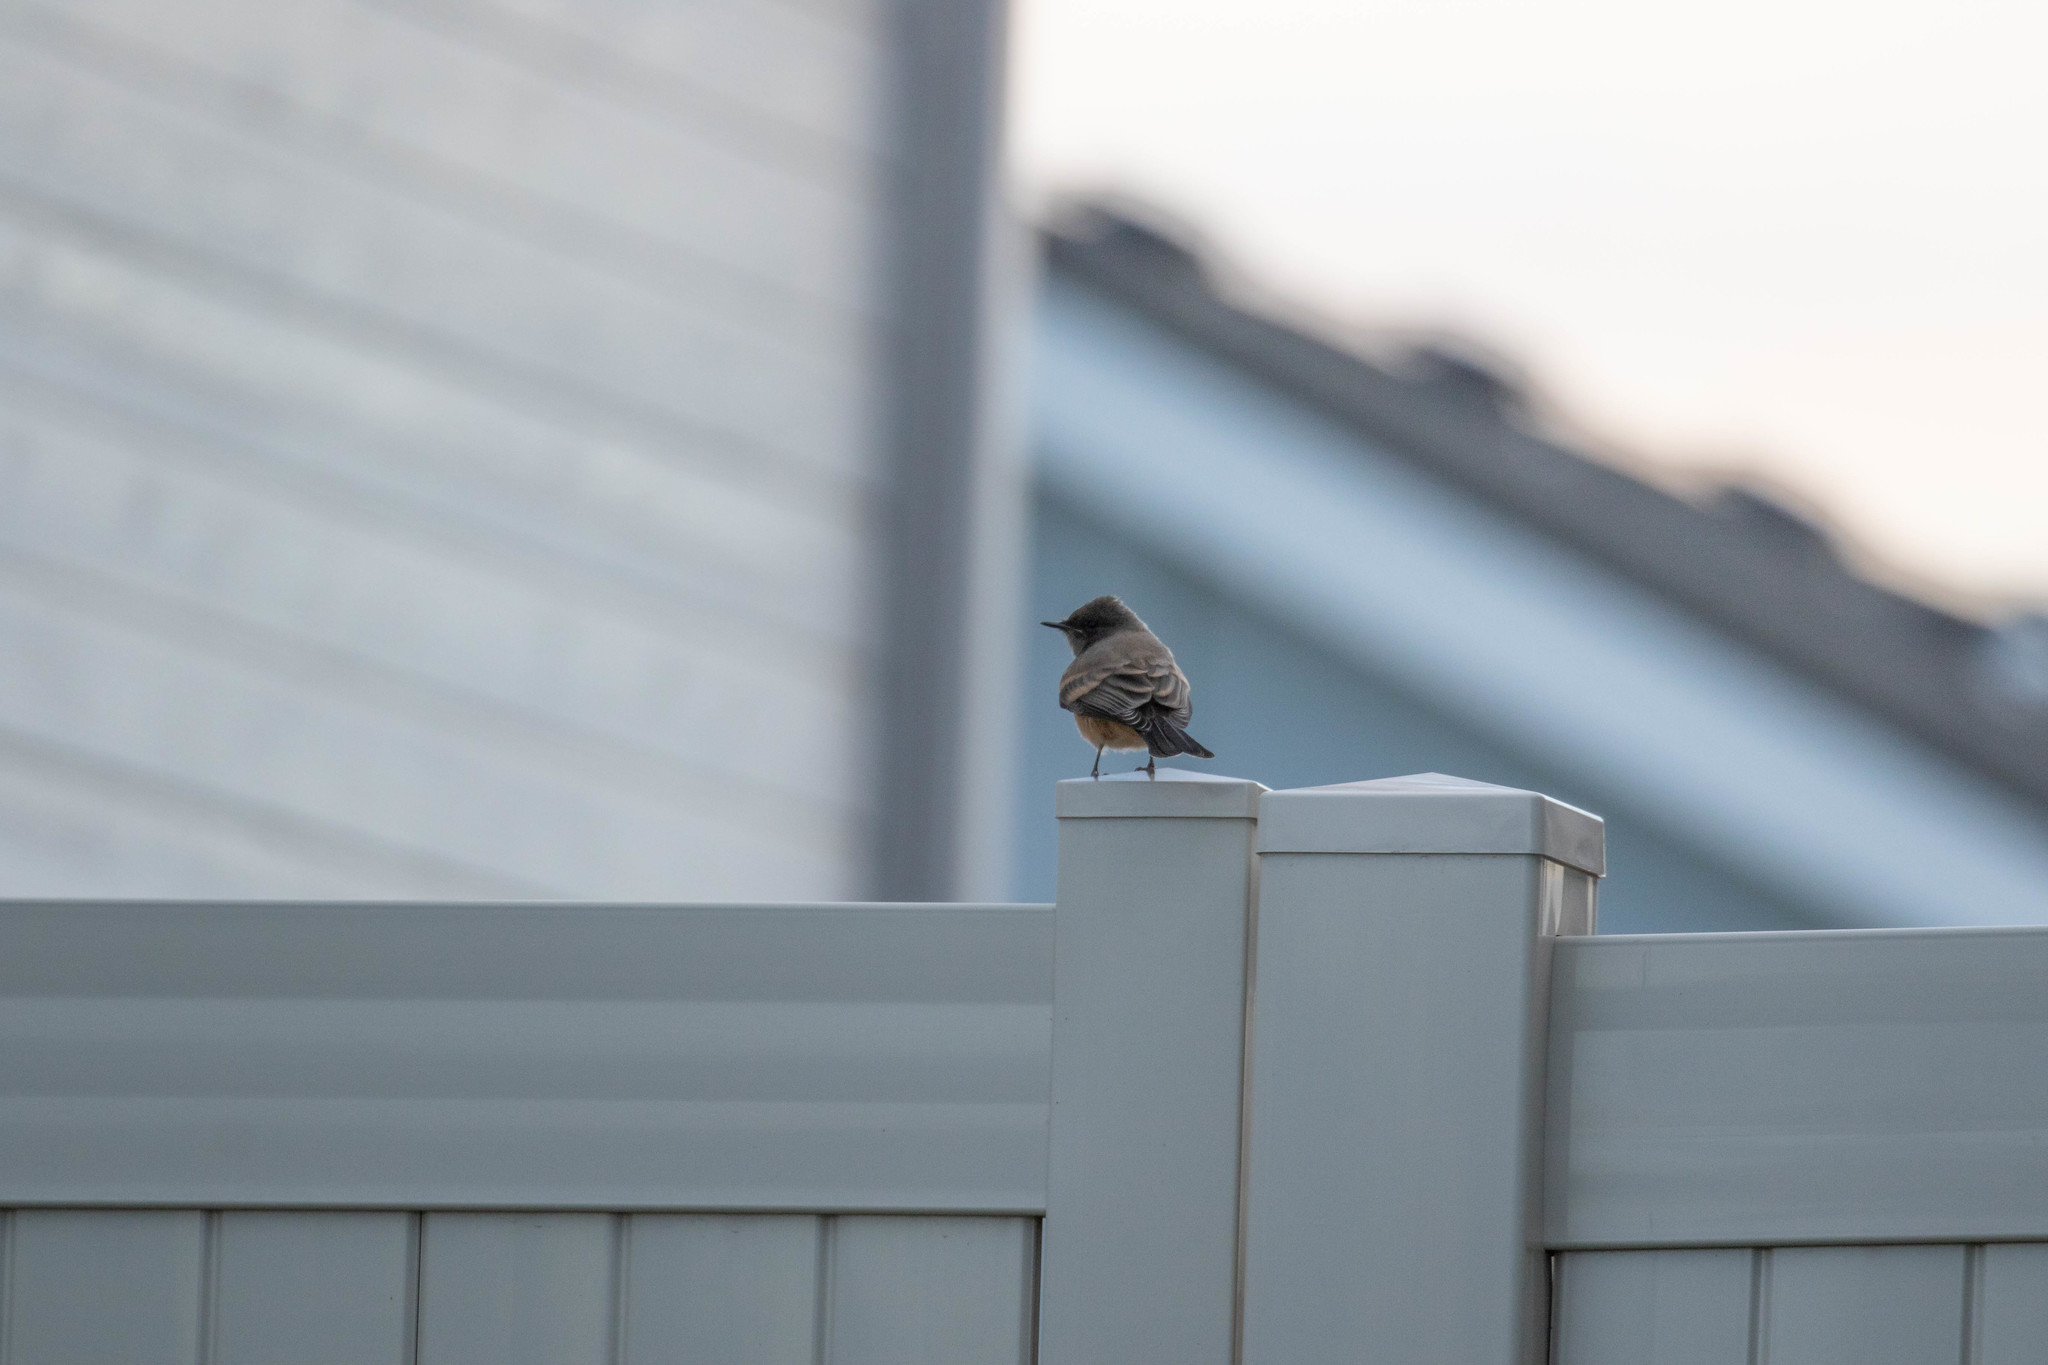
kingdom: Animalia
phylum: Chordata
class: Aves
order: Passeriformes
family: Tyrannidae
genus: Sayornis
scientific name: Sayornis saya
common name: Say's phoebe
